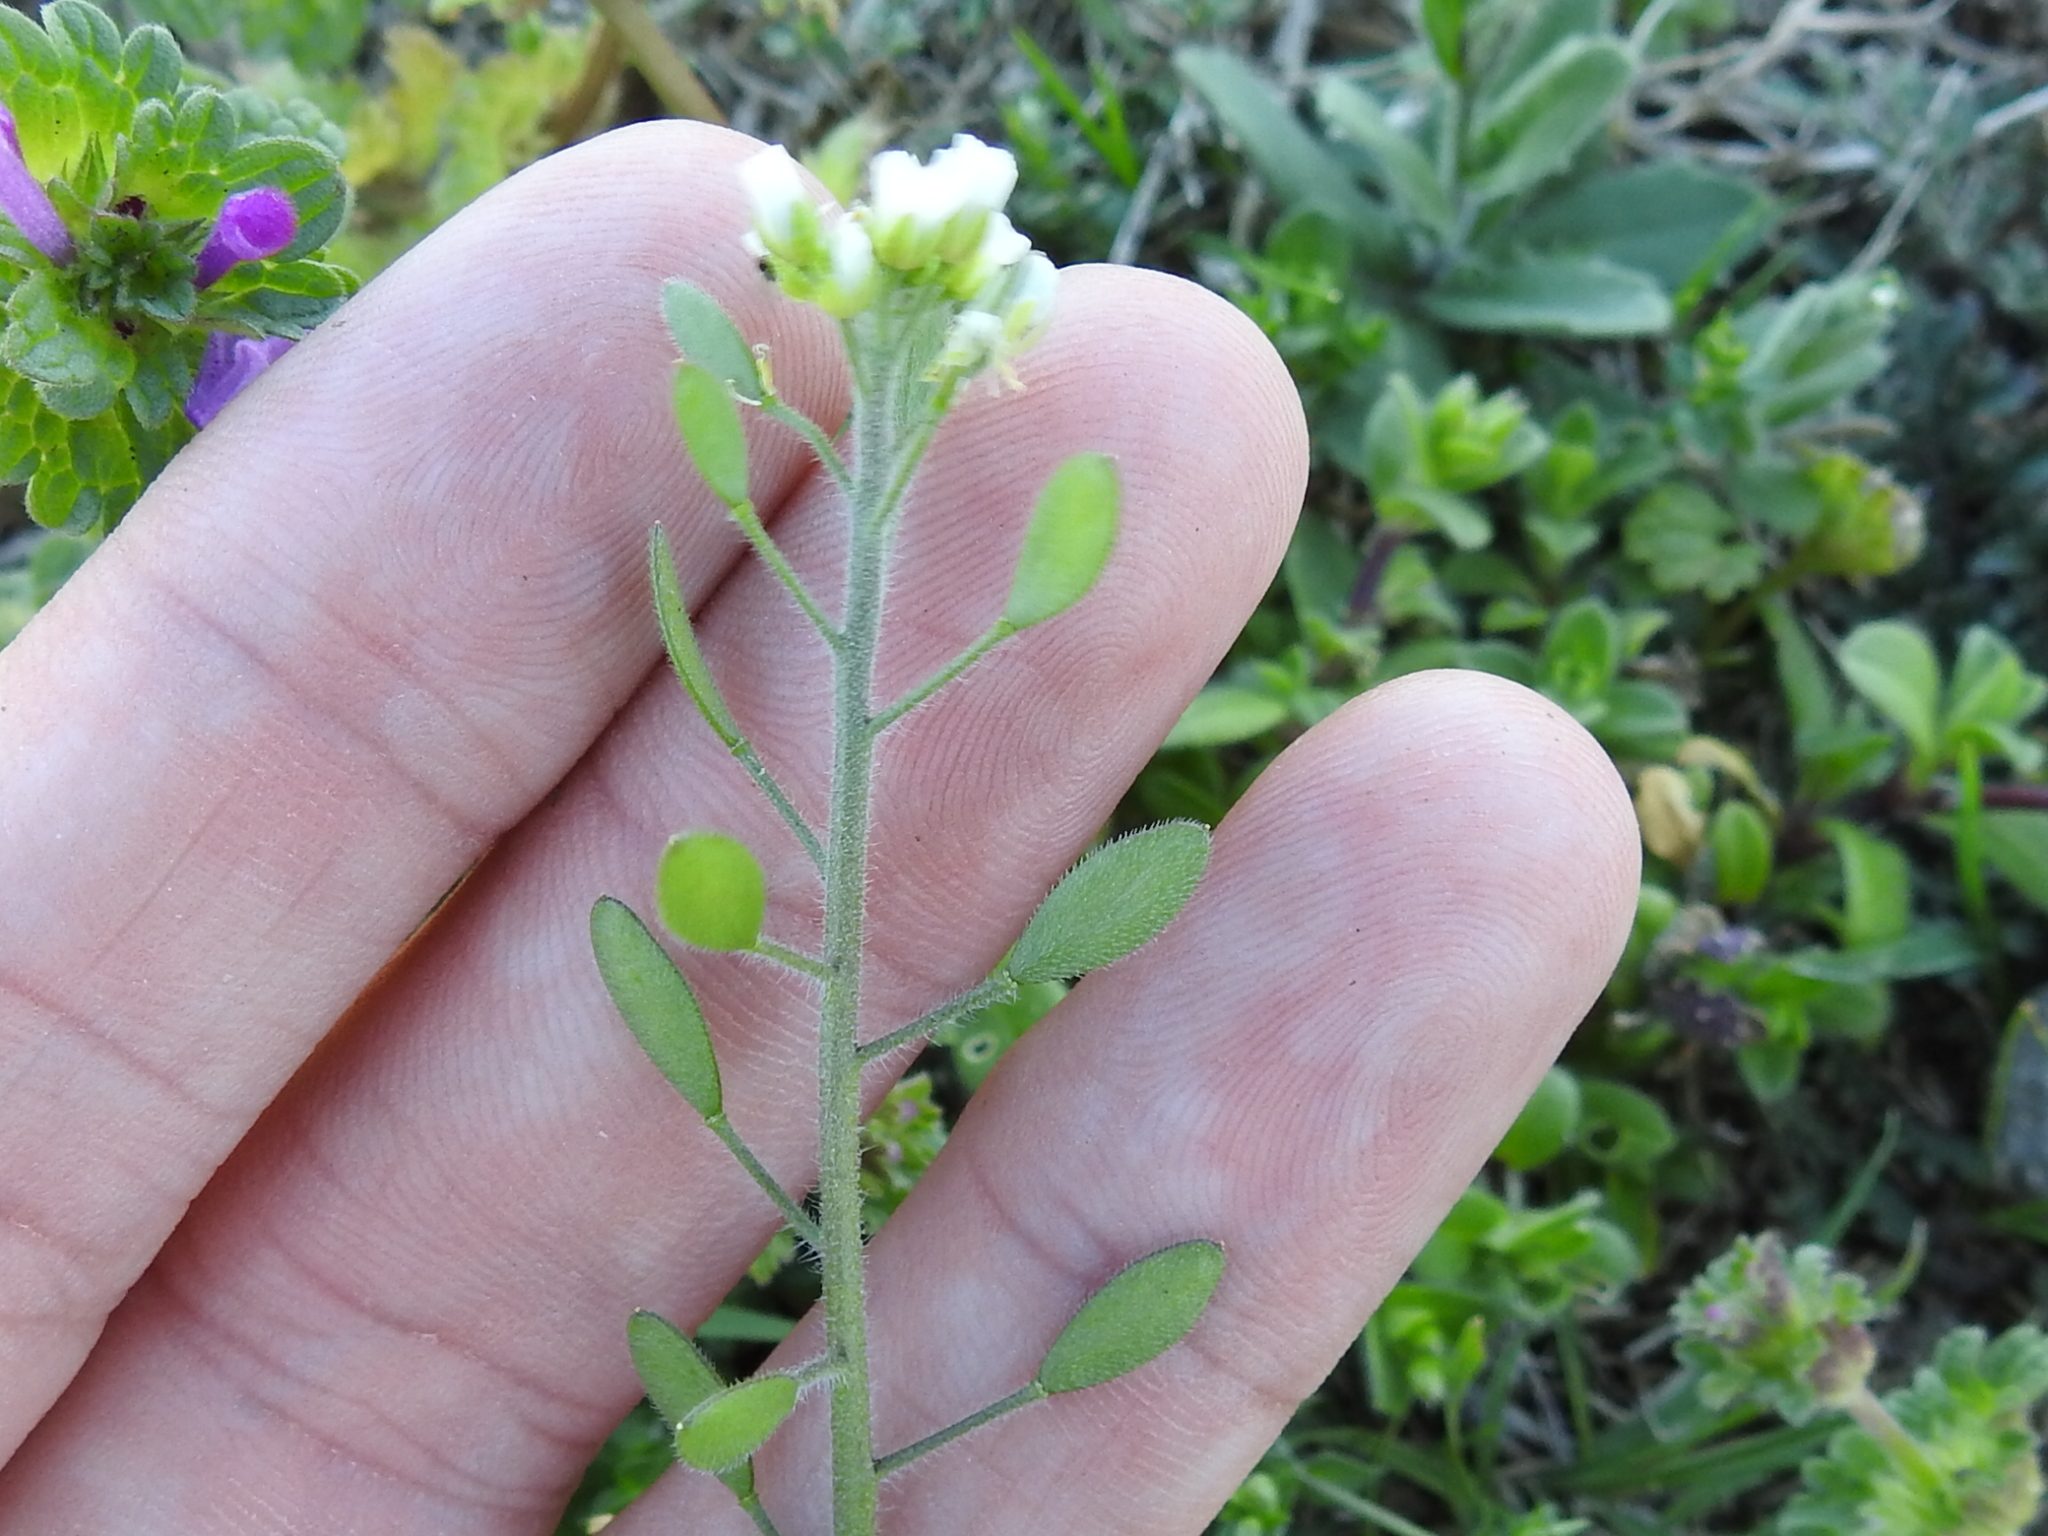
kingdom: Plantae
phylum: Tracheophyta
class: Magnoliopsida
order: Brassicales
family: Brassicaceae
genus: Tomostima
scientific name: Tomostima platycarpa
